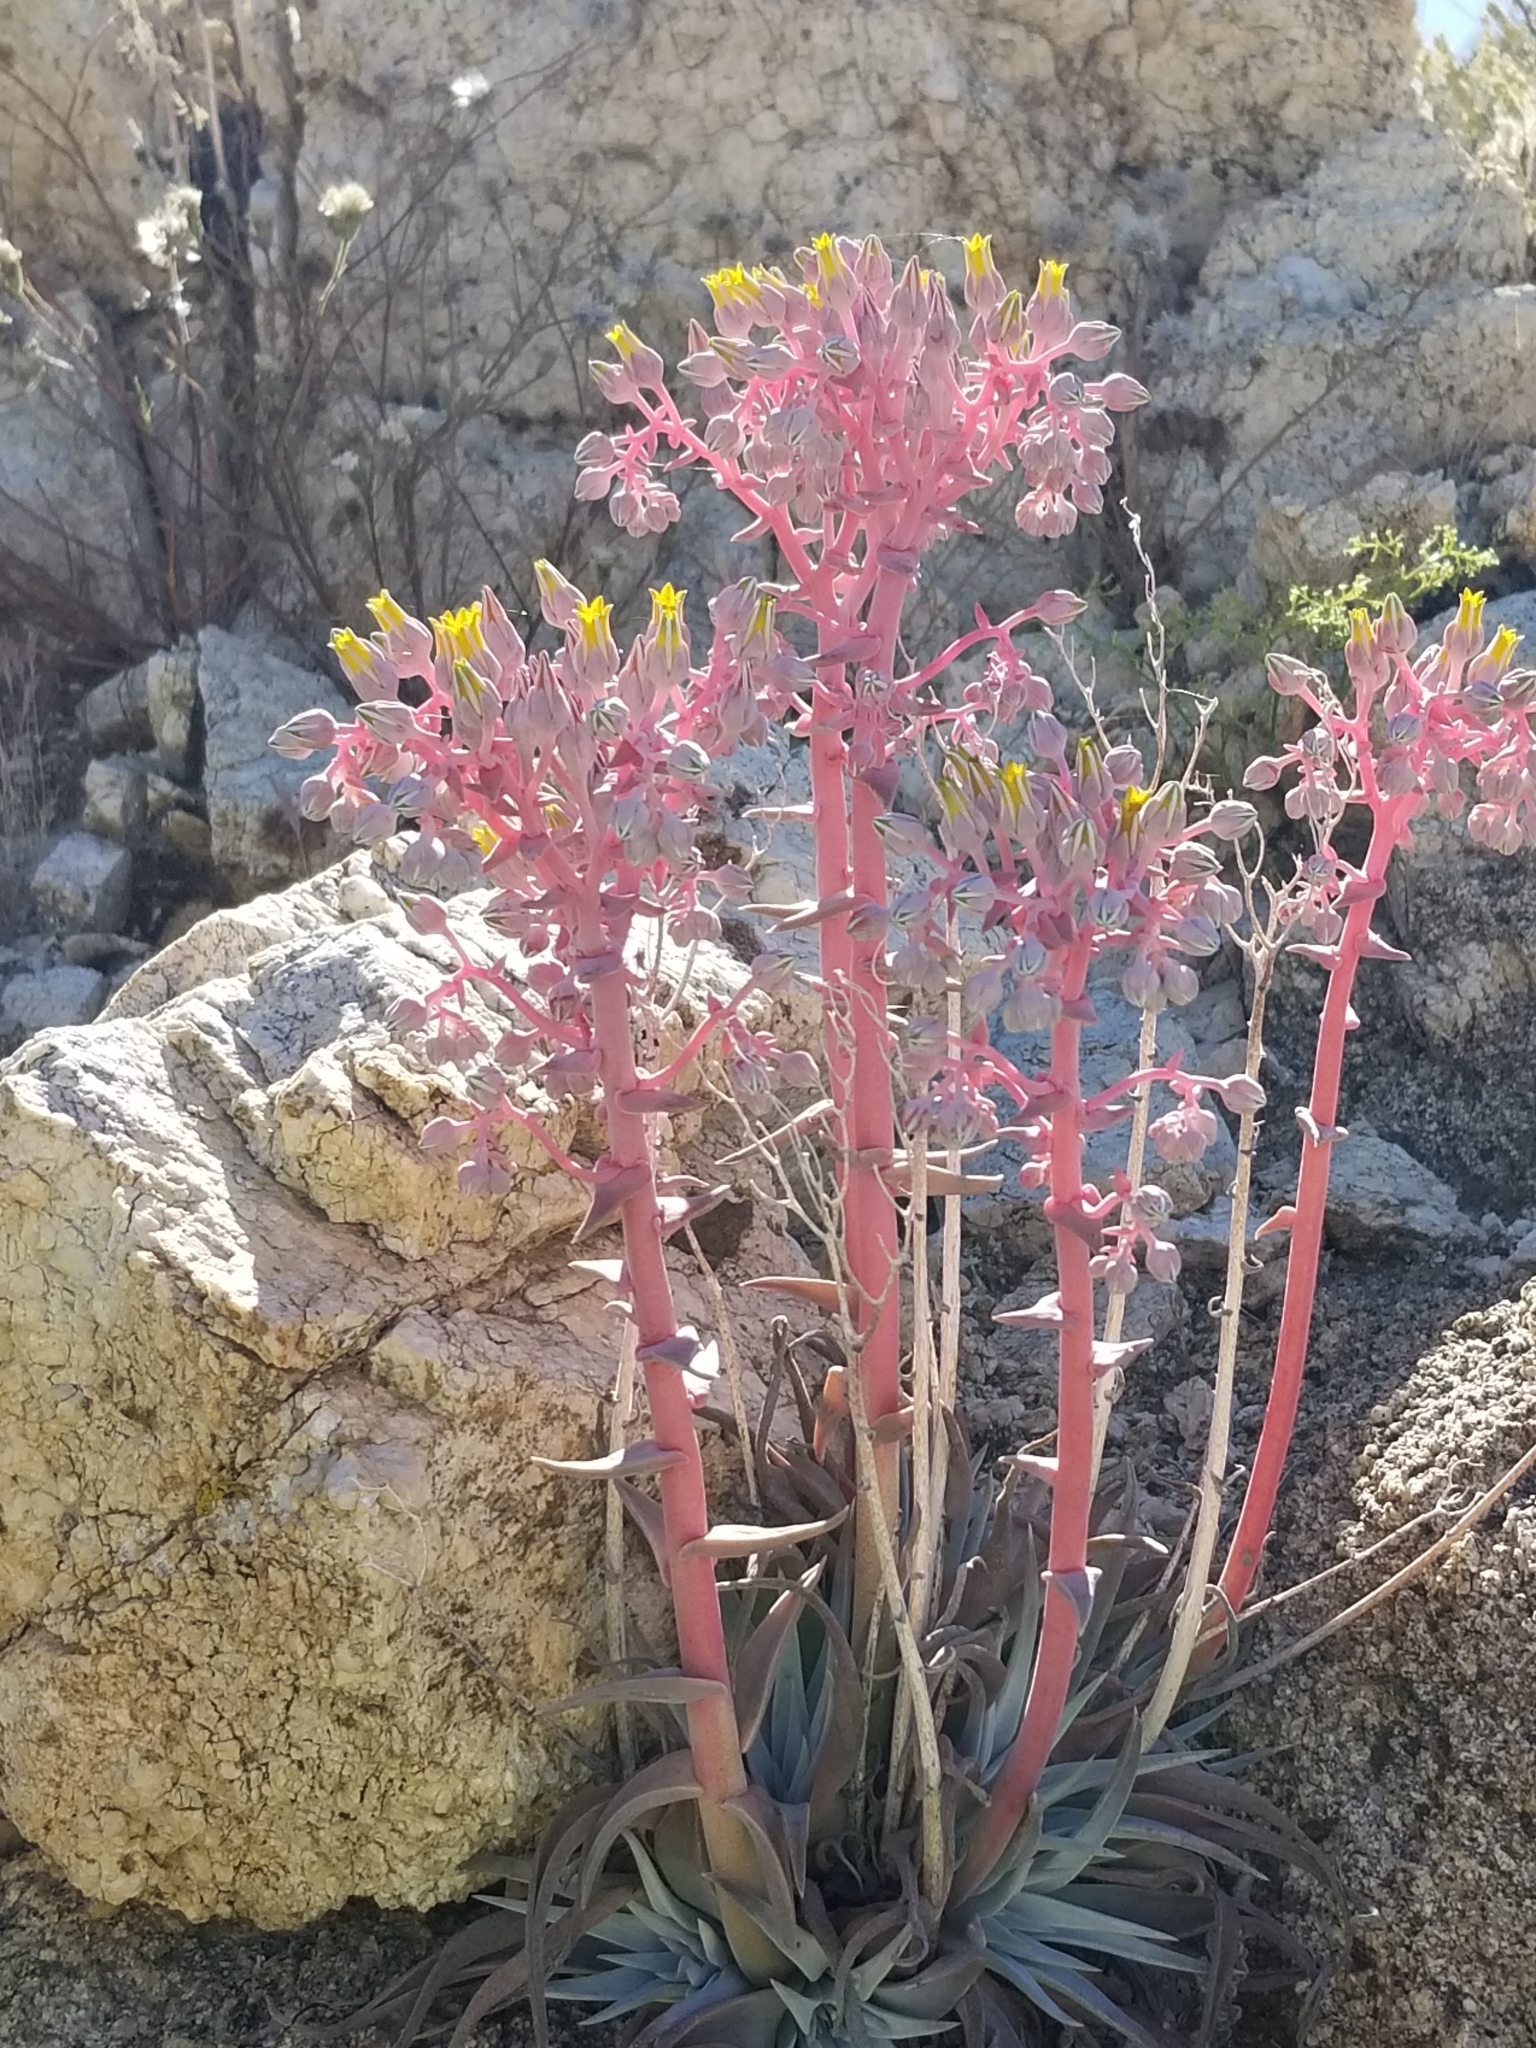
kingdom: Plantae
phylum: Tracheophyta
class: Magnoliopsida
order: Saxifragales
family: Crassulaceae
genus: Dudleya
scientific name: Dudleya saxosa
